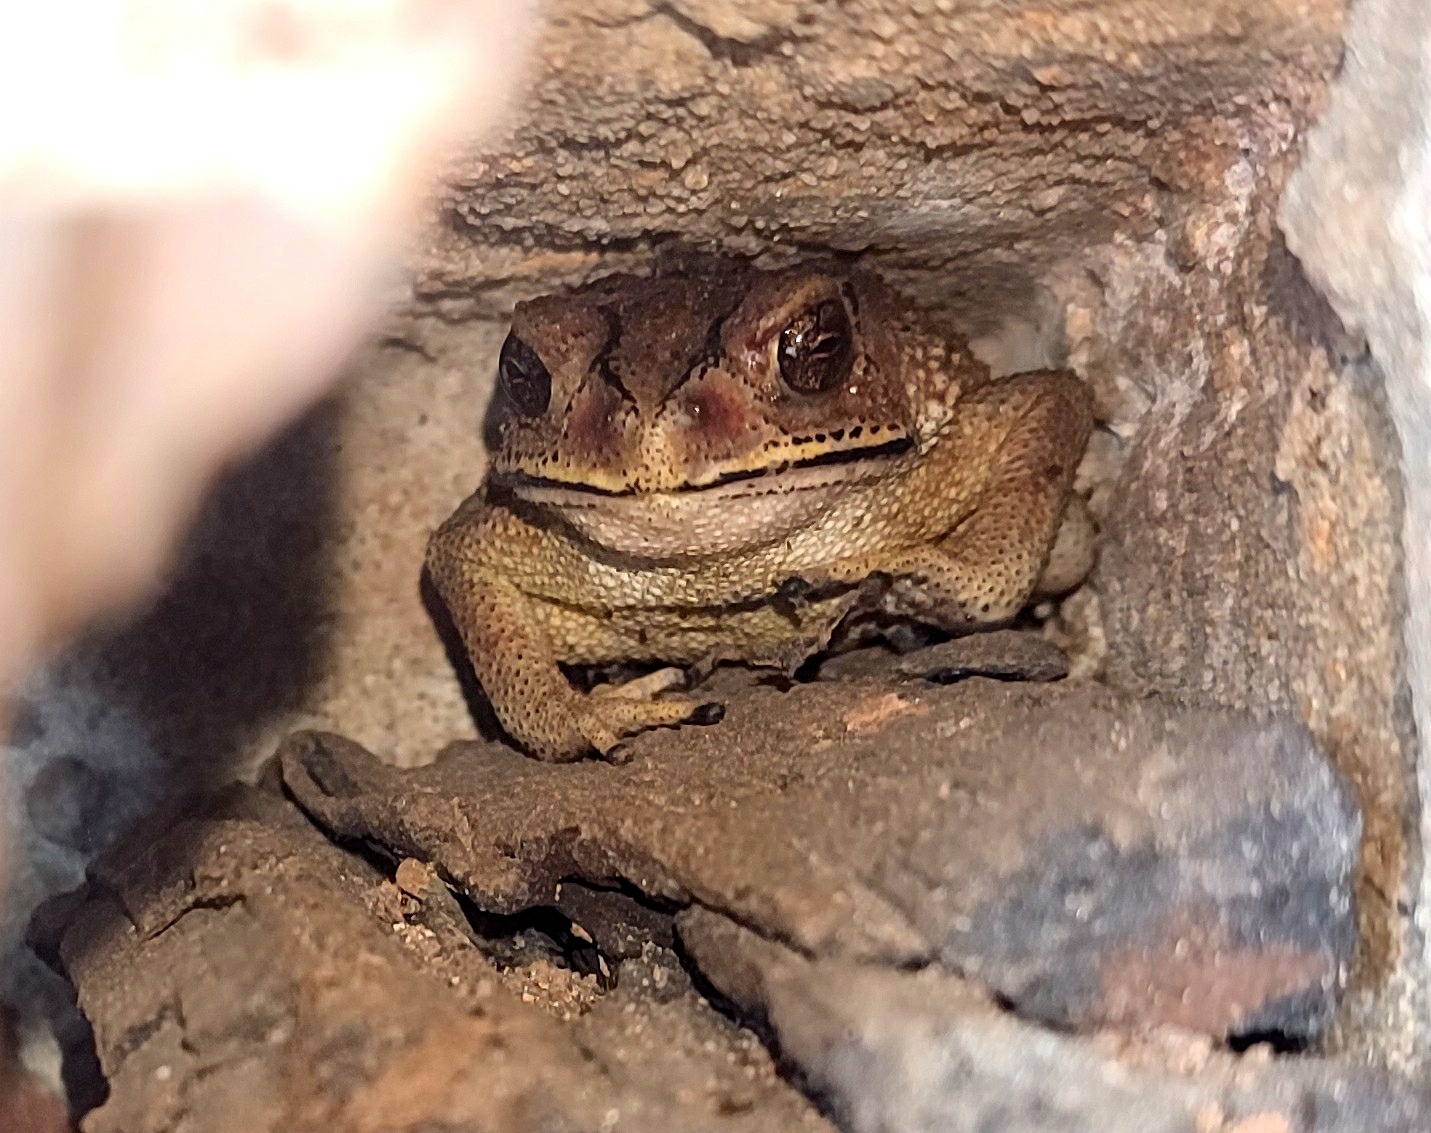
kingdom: Animalia
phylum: Chordata
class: Amphibia
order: Anura
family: Bufonidae
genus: Duttaphrynus
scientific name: Duttaphrynus melanostictus
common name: Common sunda toad
